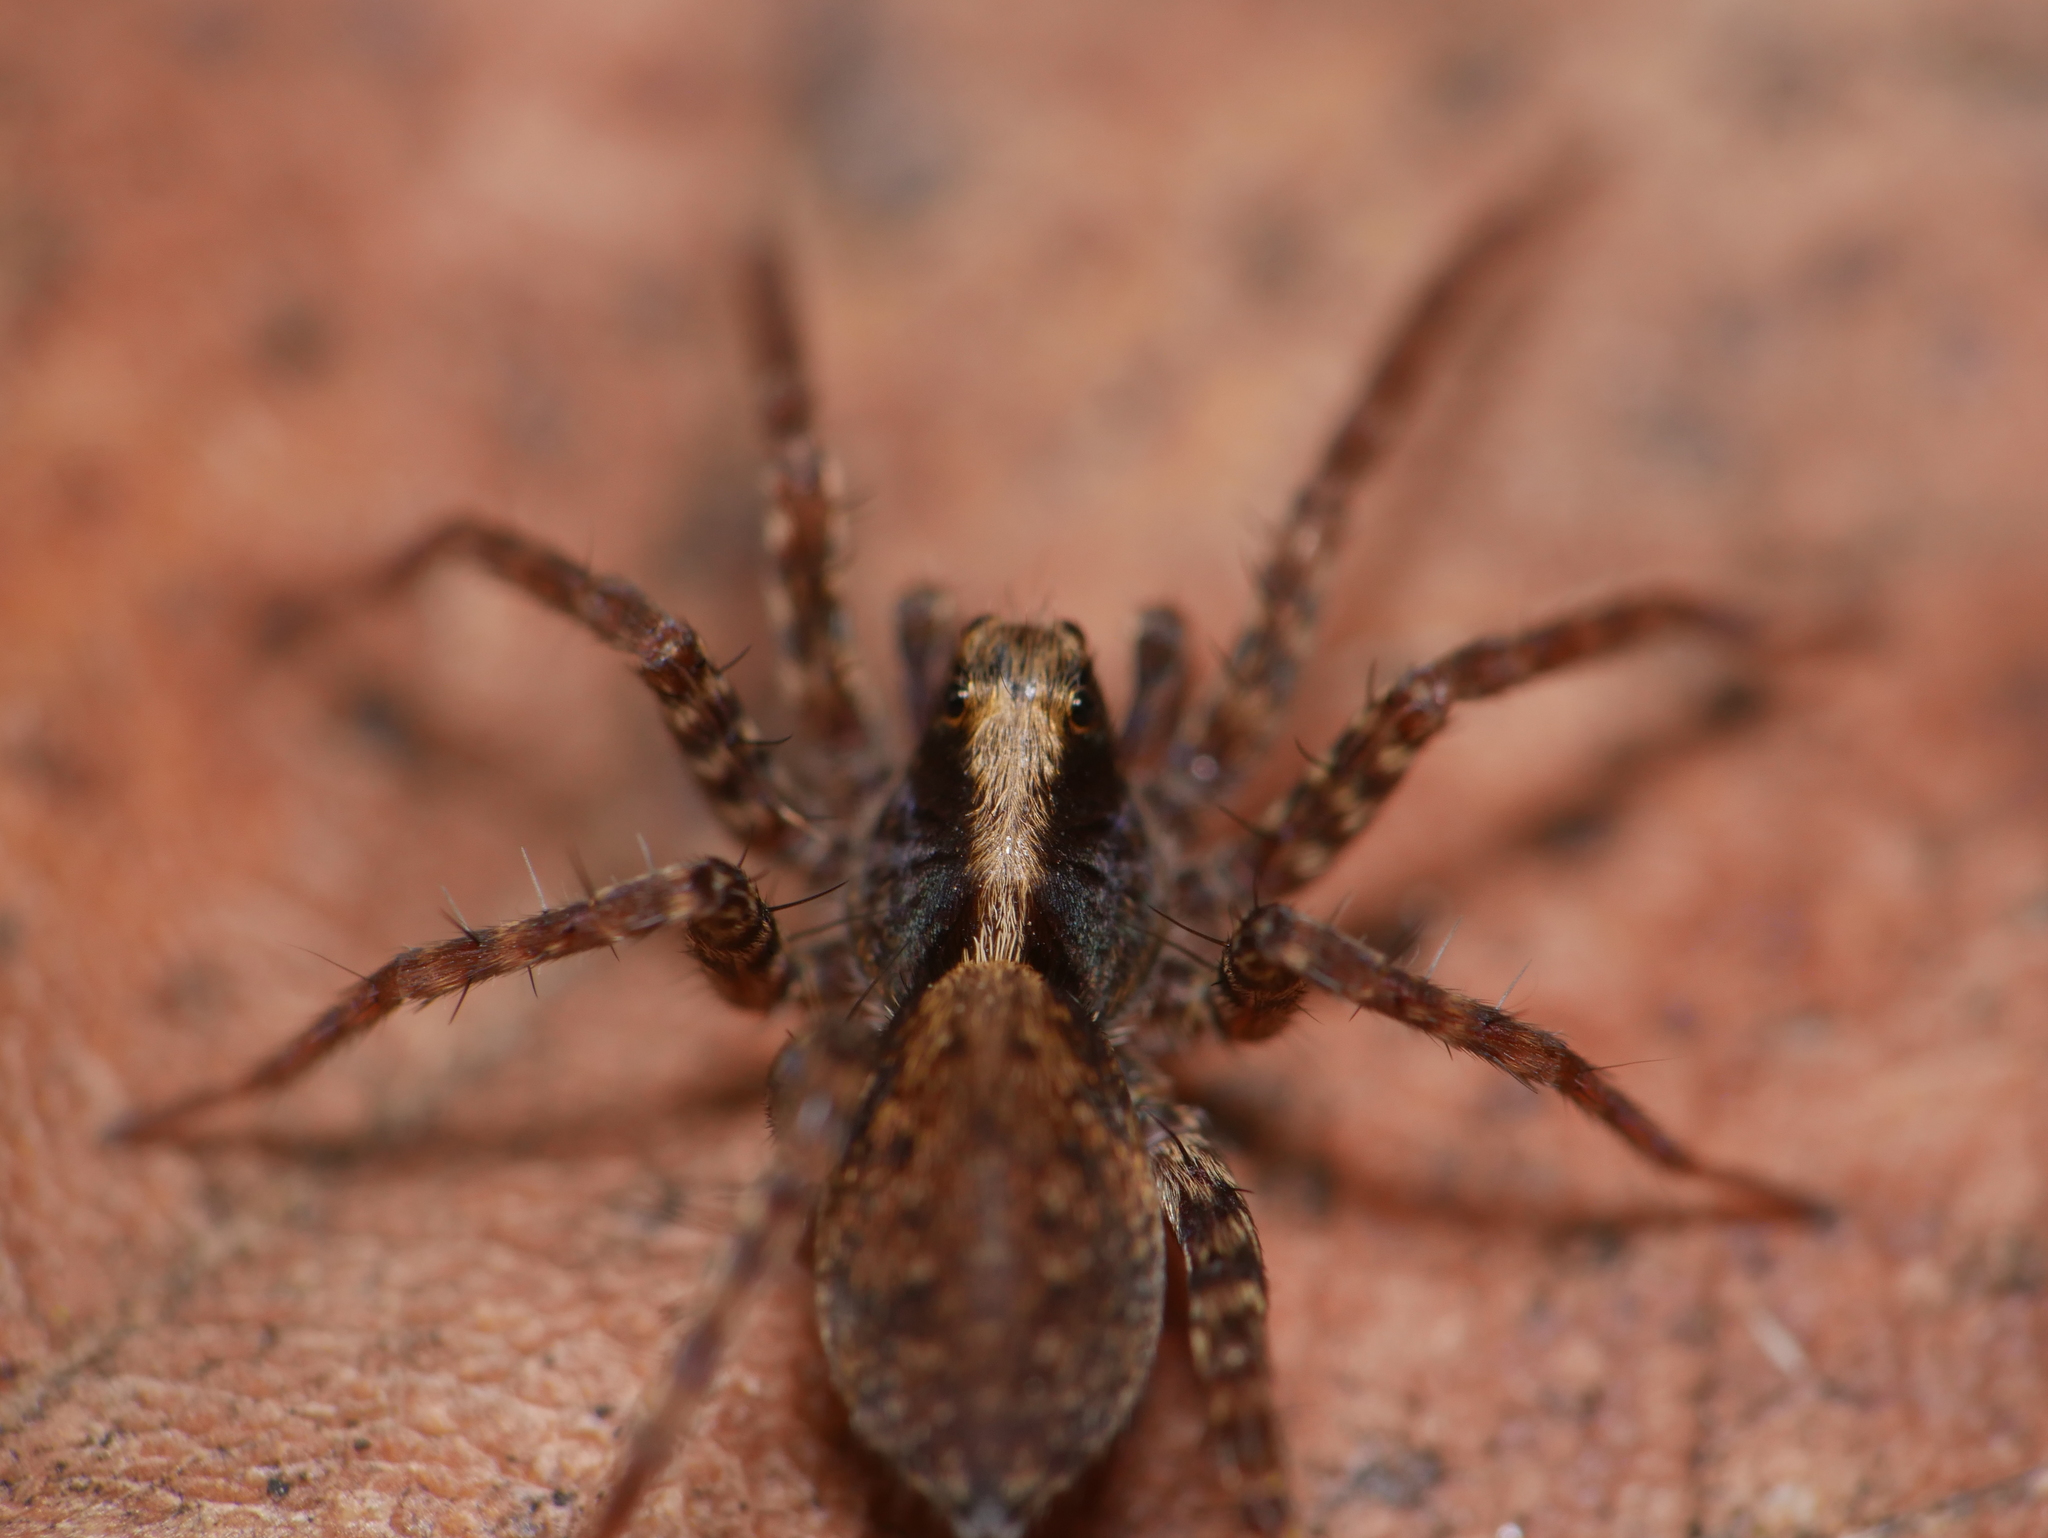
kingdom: Animalia
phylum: Arthropoda
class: Arachnida
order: Araneae
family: Lycosidae
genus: Pardosa
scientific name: Pardosa
